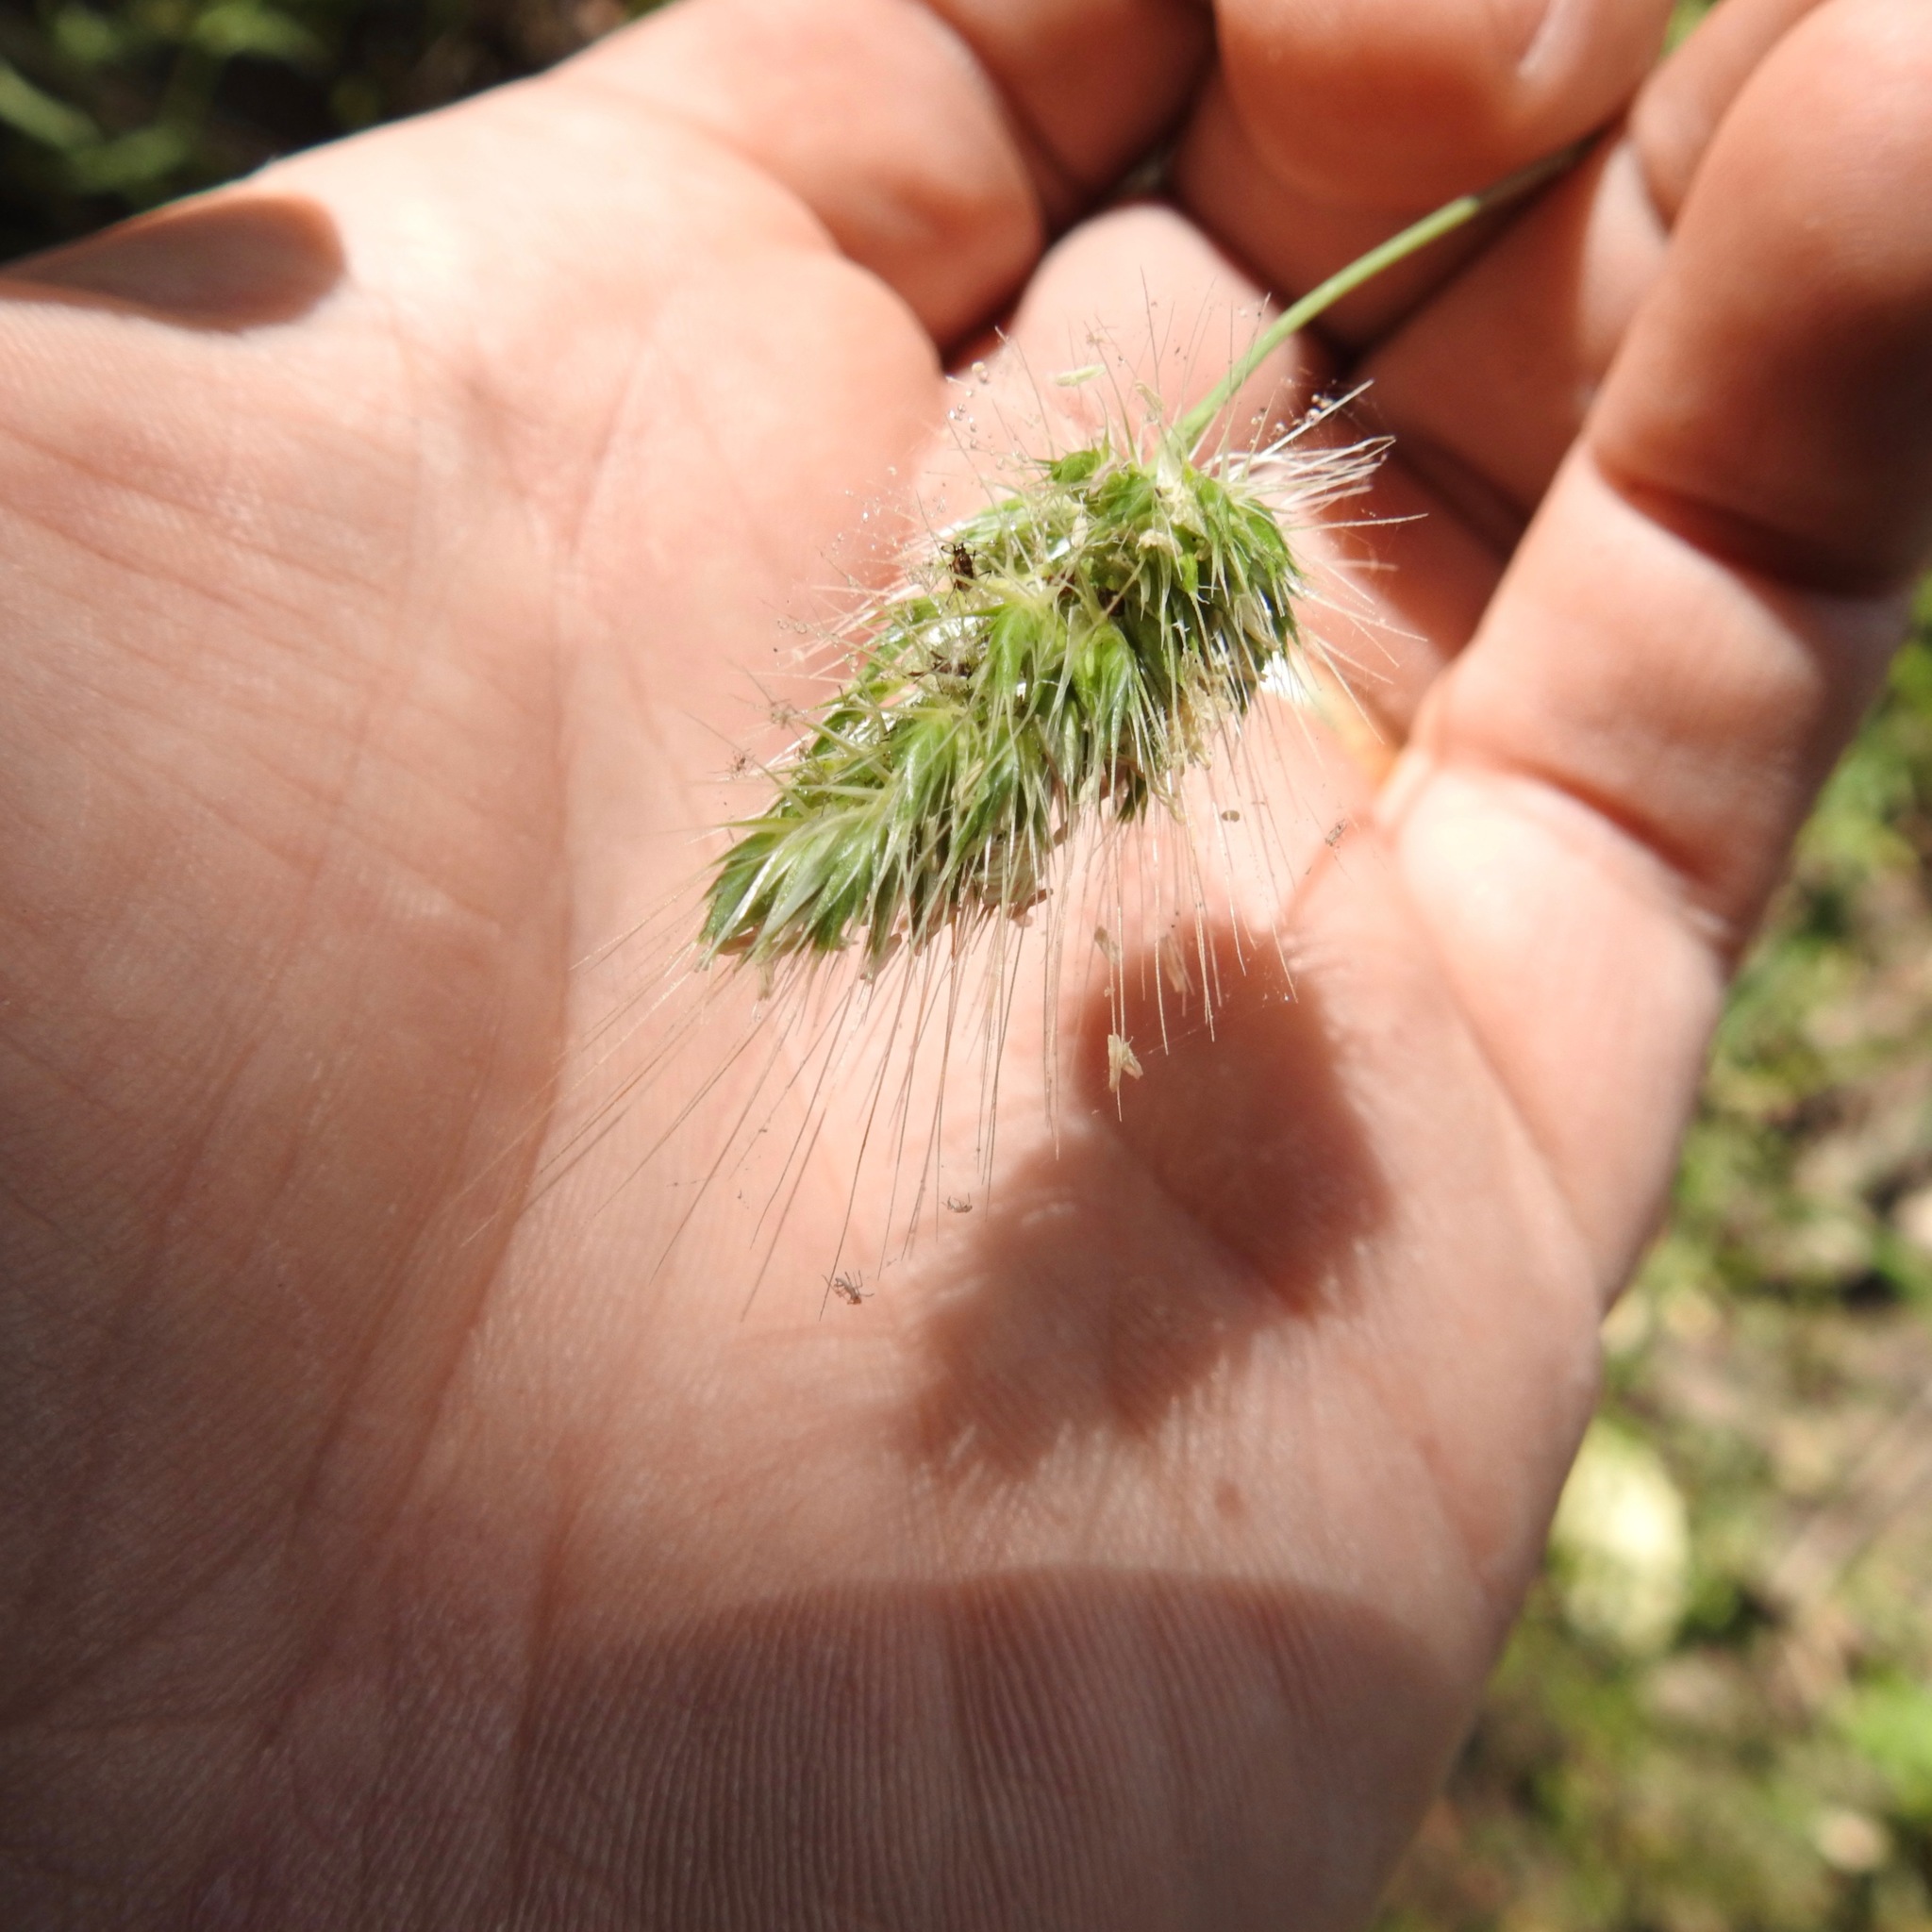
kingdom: Plantae
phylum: Tracheophyta
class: Liliopsida
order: Poales
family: Poaceae
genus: Cynosurus
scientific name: Cynosurus echinatus
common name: Rough dog's-tail
